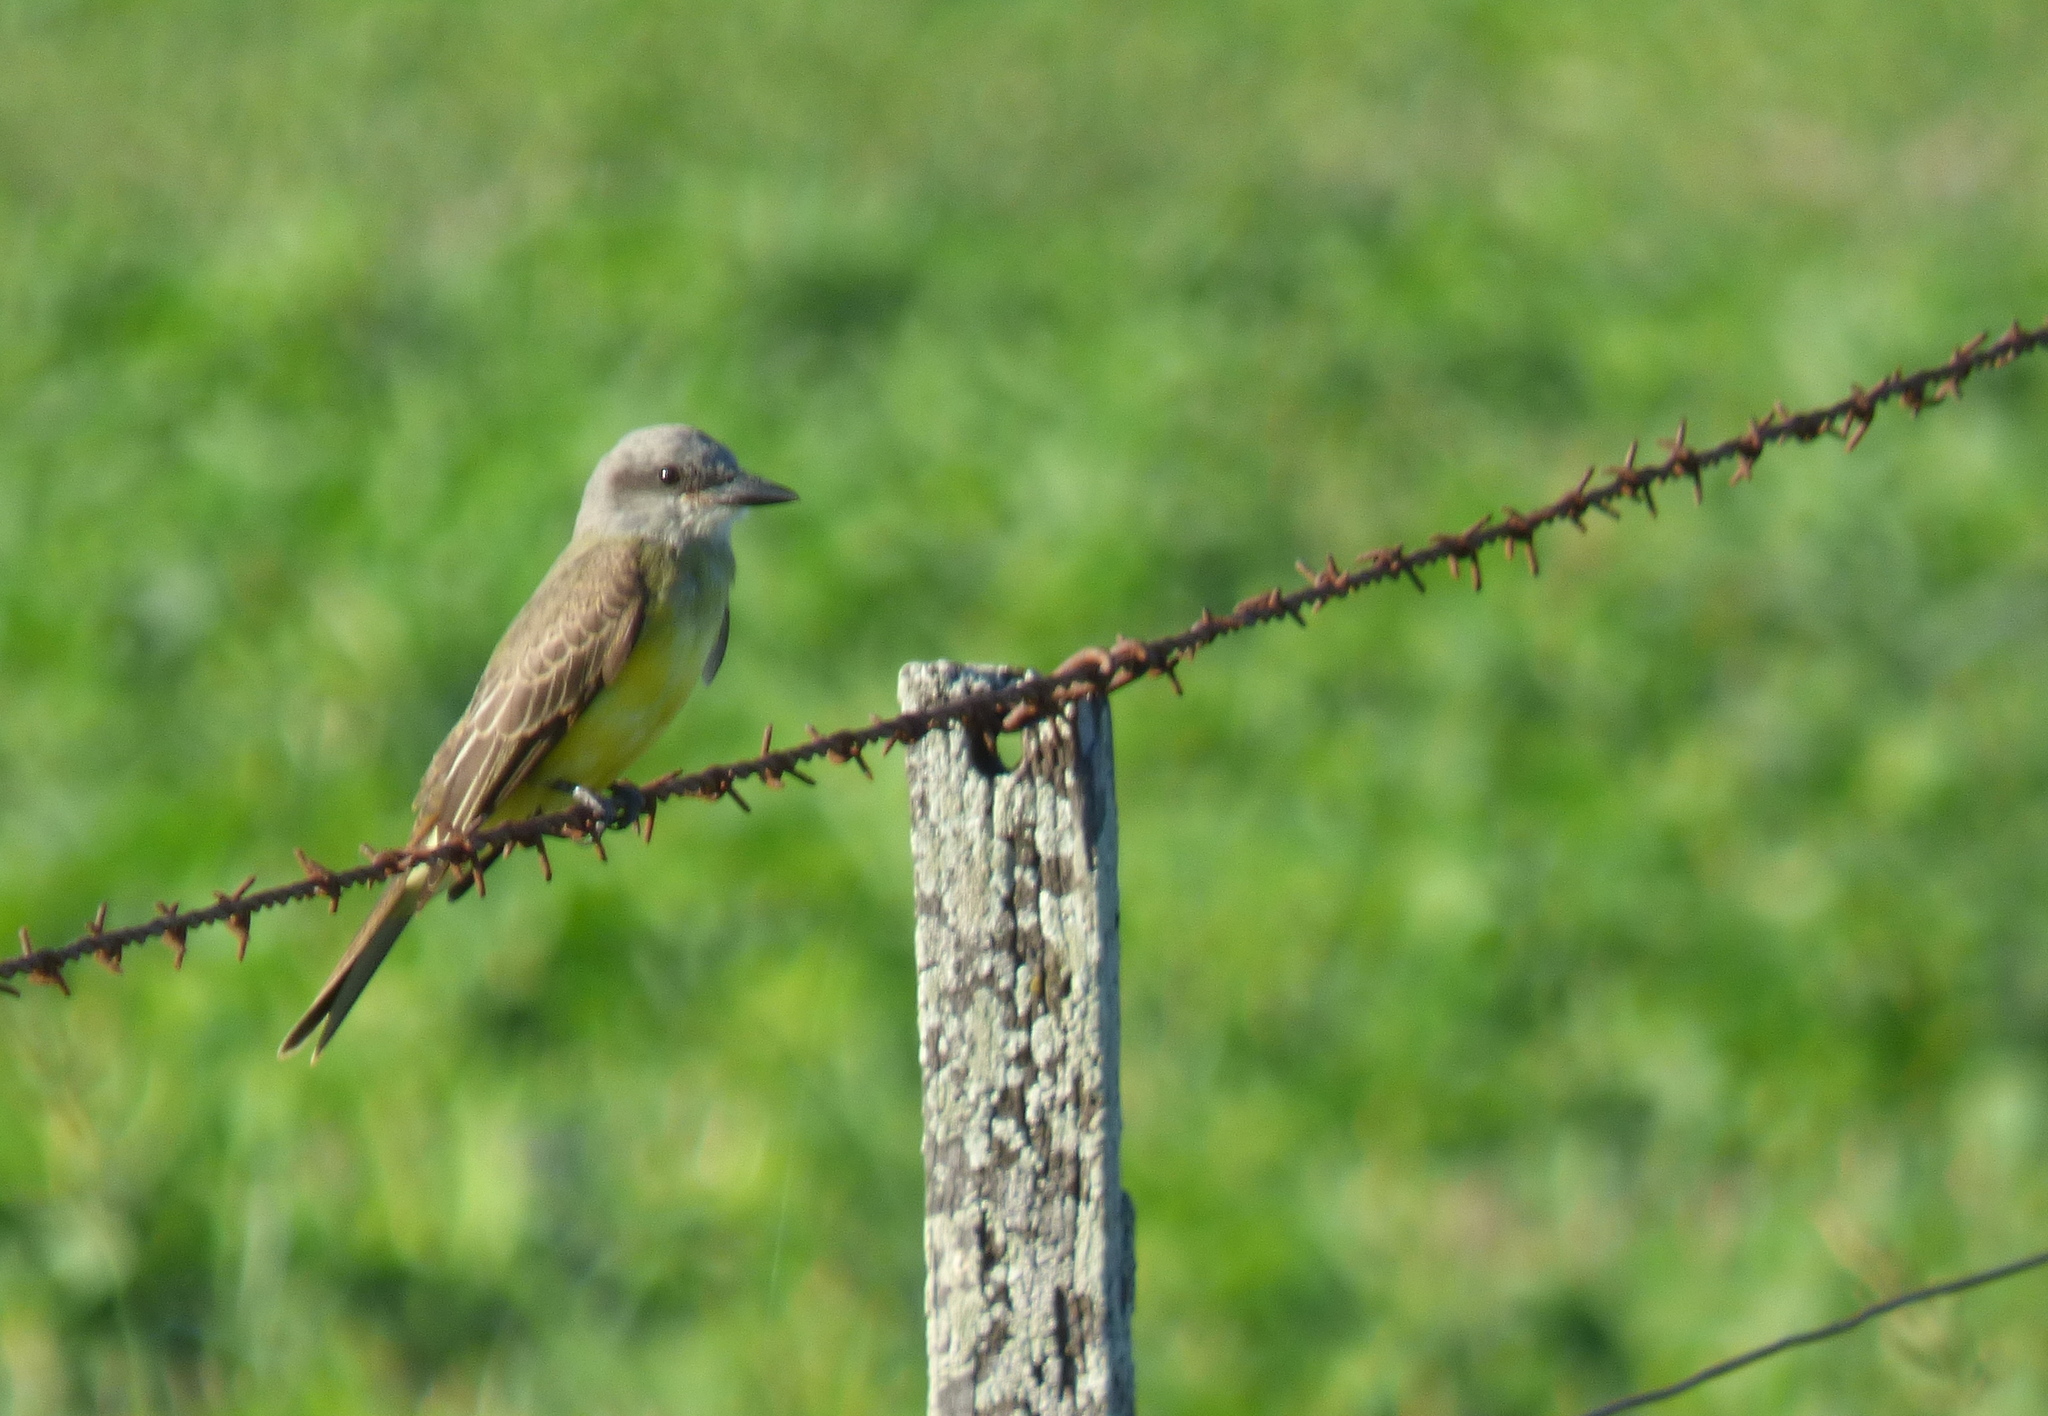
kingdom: Animalia
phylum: Chordata
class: Aves
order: Passeriformes
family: Tyrannidae
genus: Tyrannus
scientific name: Tyrannus melancholicus
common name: Tropical kingbird
